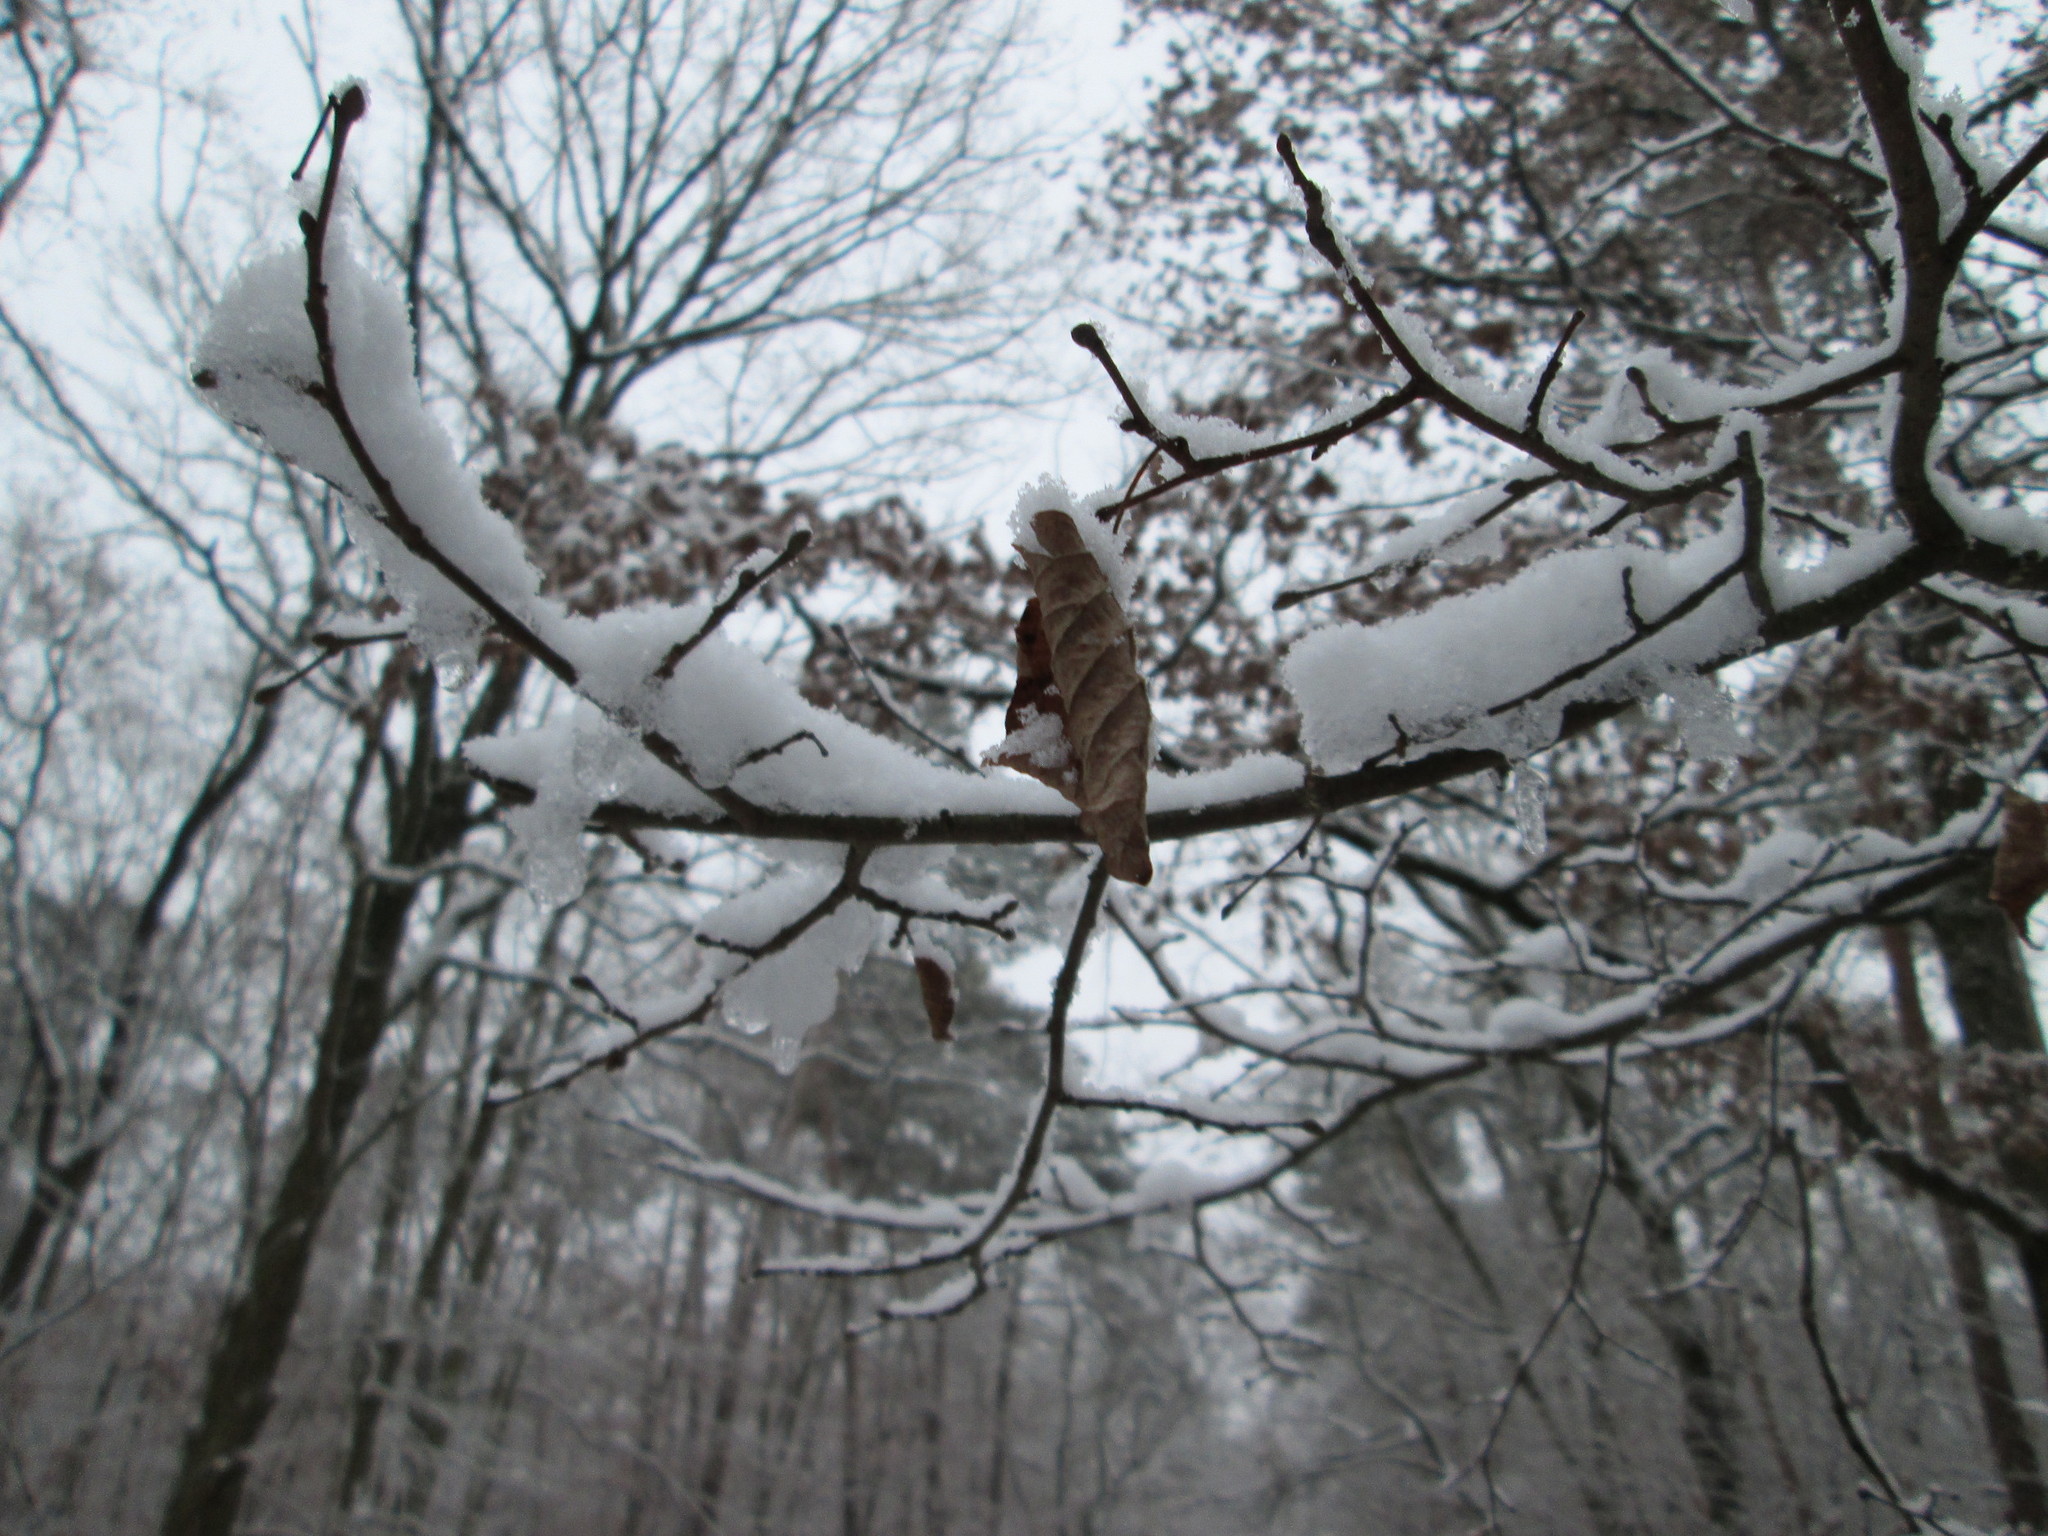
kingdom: Plantae
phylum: Tracheophyta
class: Magnoliopsida
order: Fagales
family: Betulaceae
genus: Carpinus
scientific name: Carpinus betulus
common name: Hornbeam
